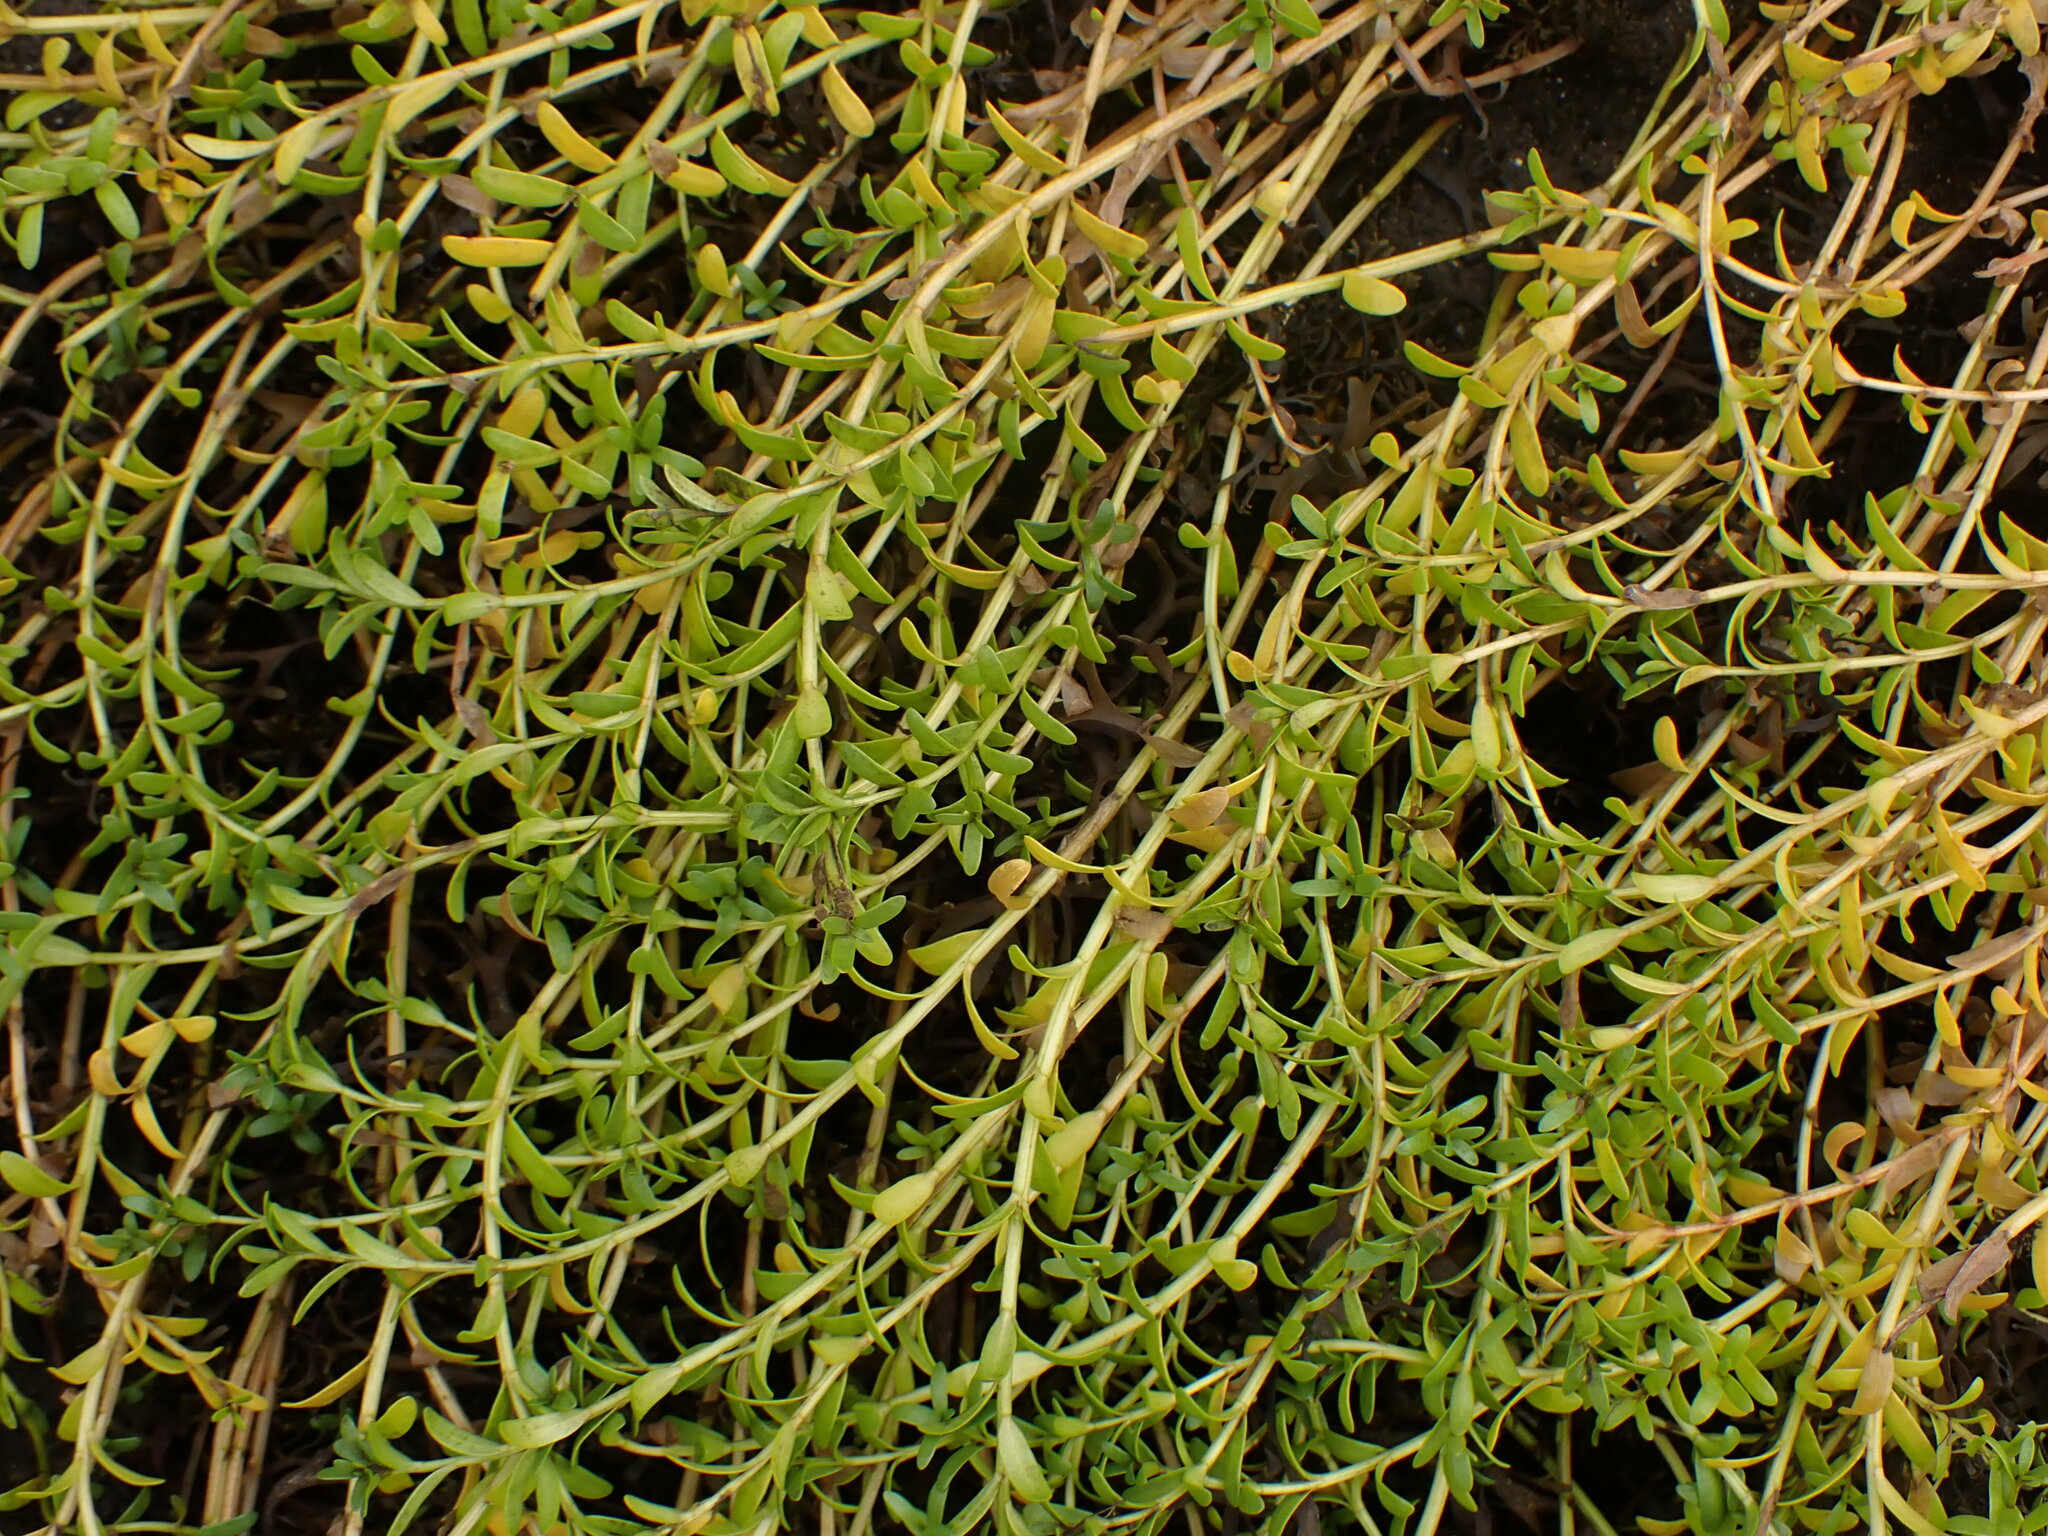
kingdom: Plantae
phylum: Tracheophyta
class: Magnoliopsida
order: Ericales
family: Primulaceae
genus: Lysimachia
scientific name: Lysimachia maritima
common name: Sea milkwort
